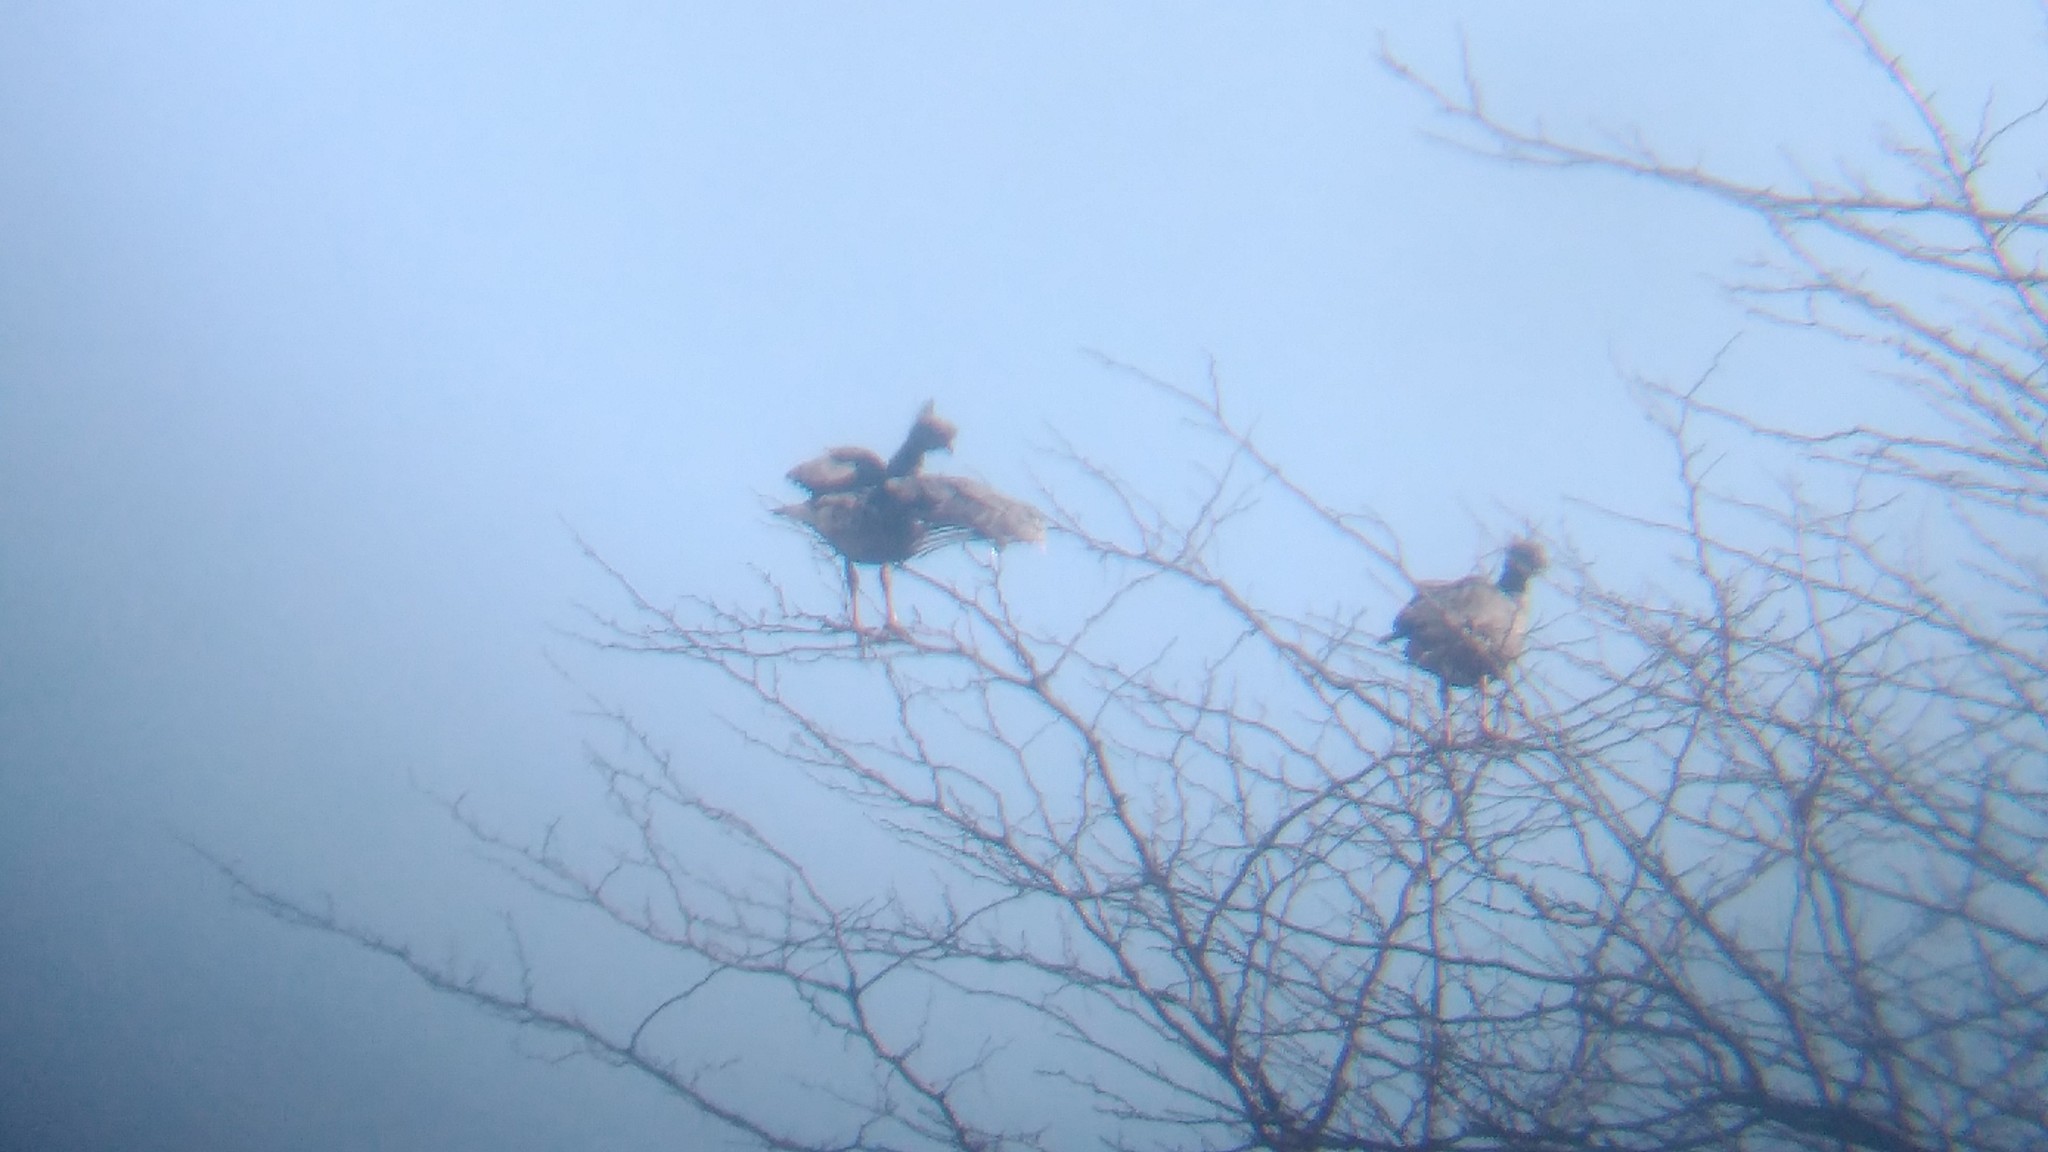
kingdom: Animalia
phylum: Chordata
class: Aves
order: Anseriformes
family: Anhimidae
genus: Chauna
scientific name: Chauna torquata
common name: Southern screamer
